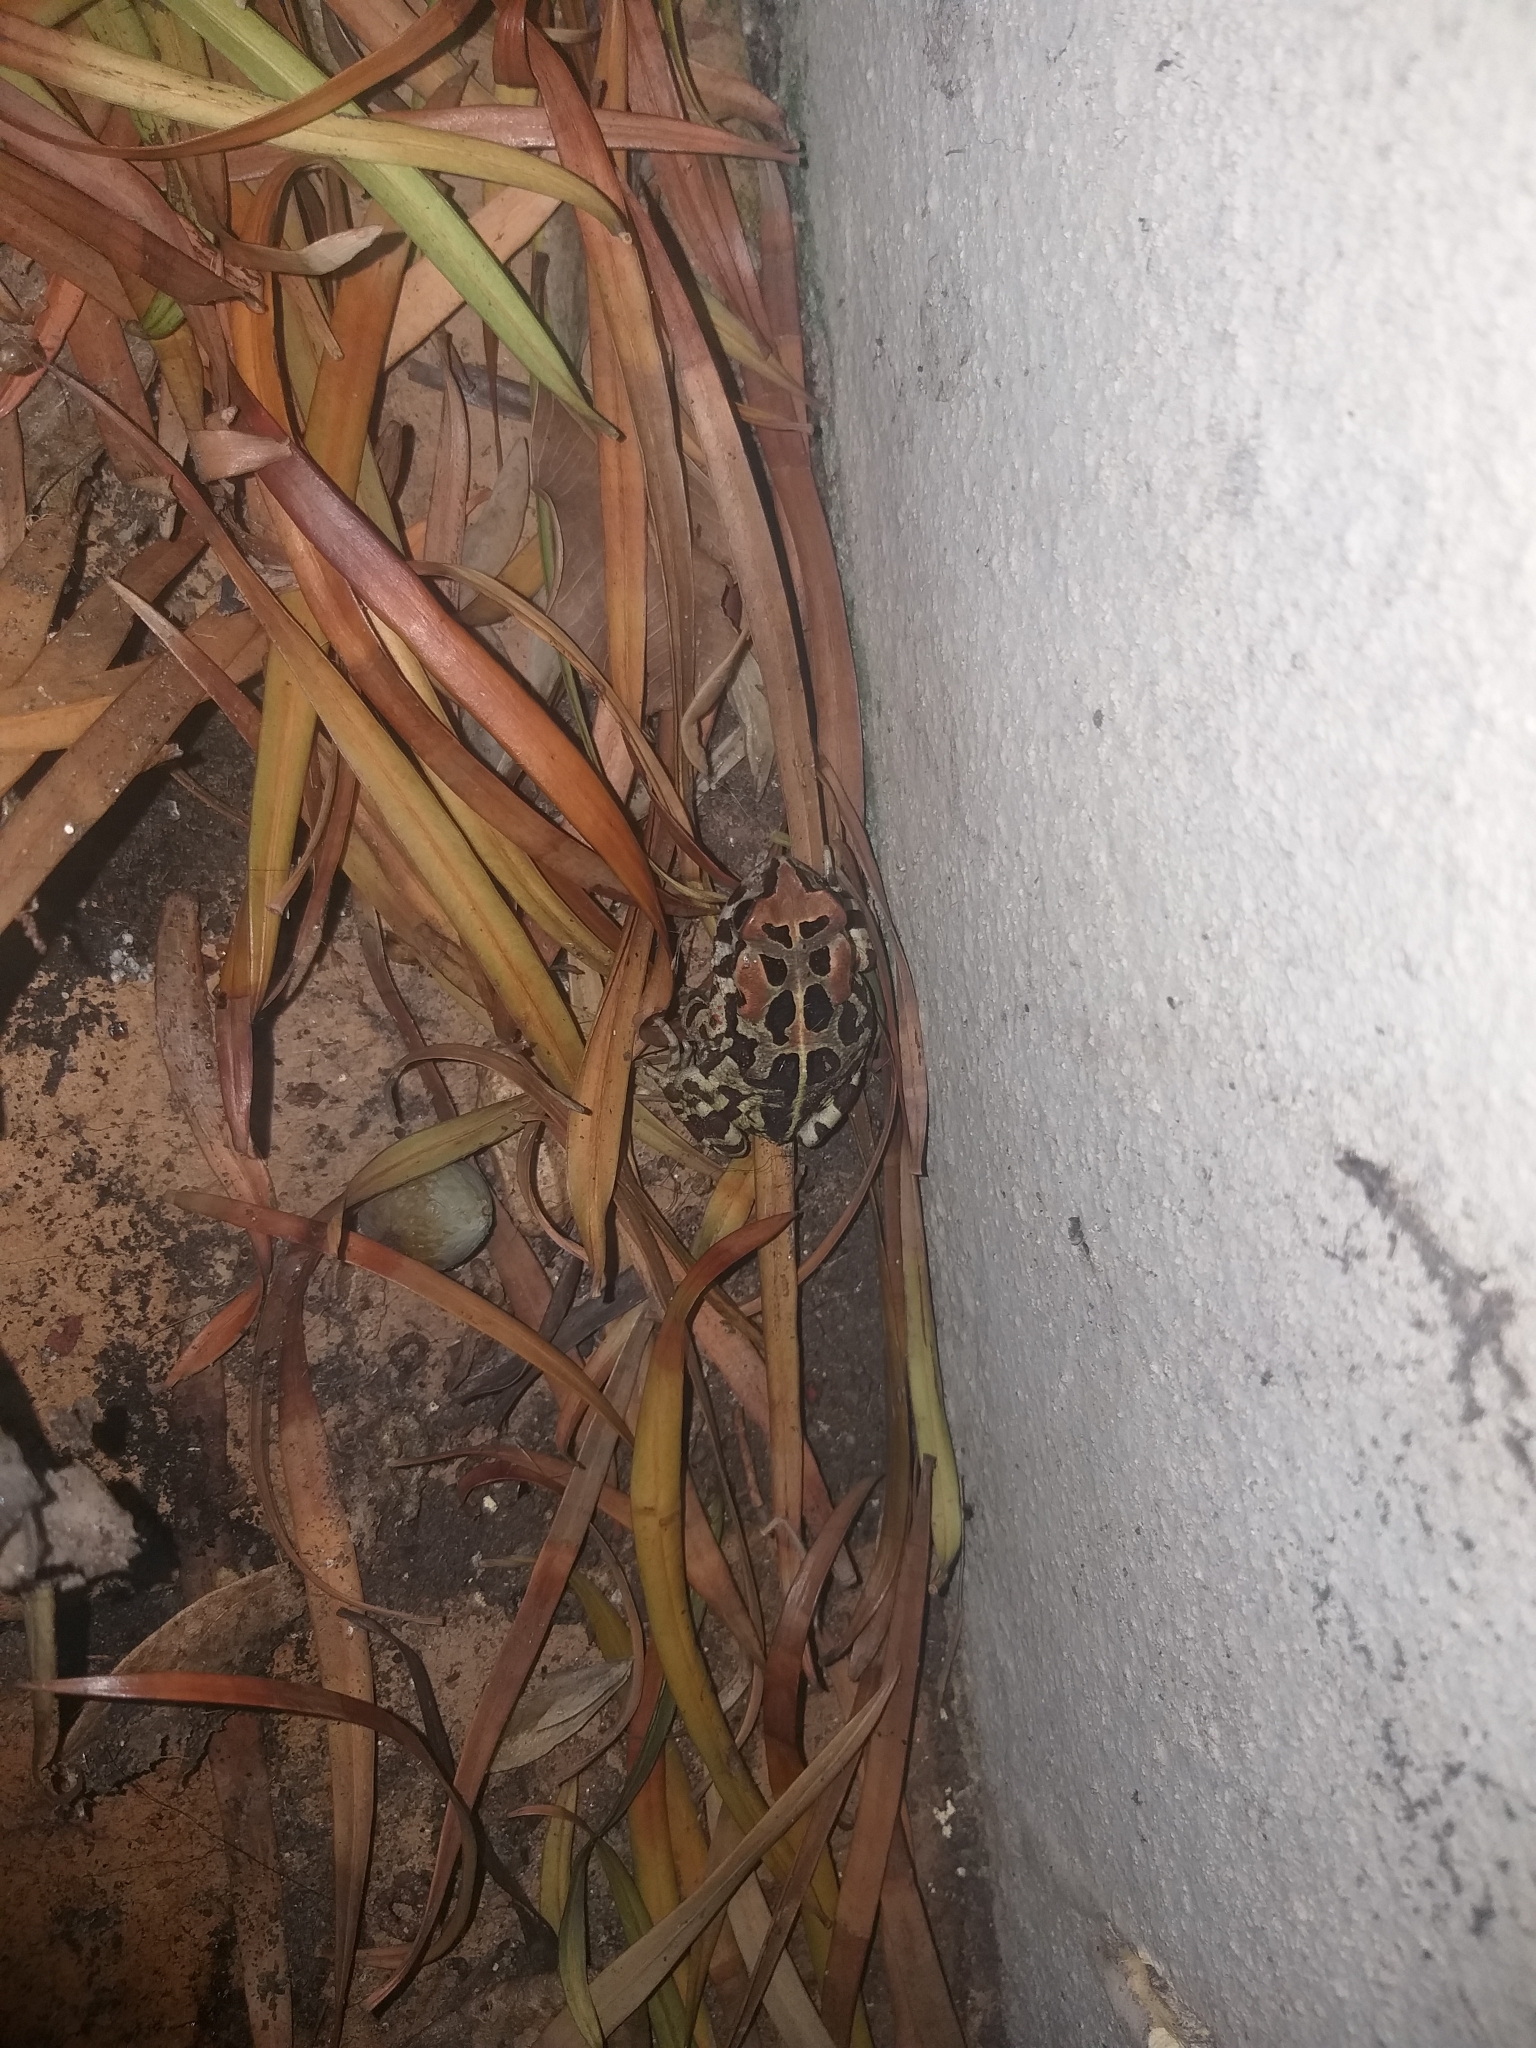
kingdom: Animalia
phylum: Chordata
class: Amphibia
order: Anura
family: Bufonidae
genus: Sclerophrys
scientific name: Sclerophrys pantherina
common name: Panther toad
